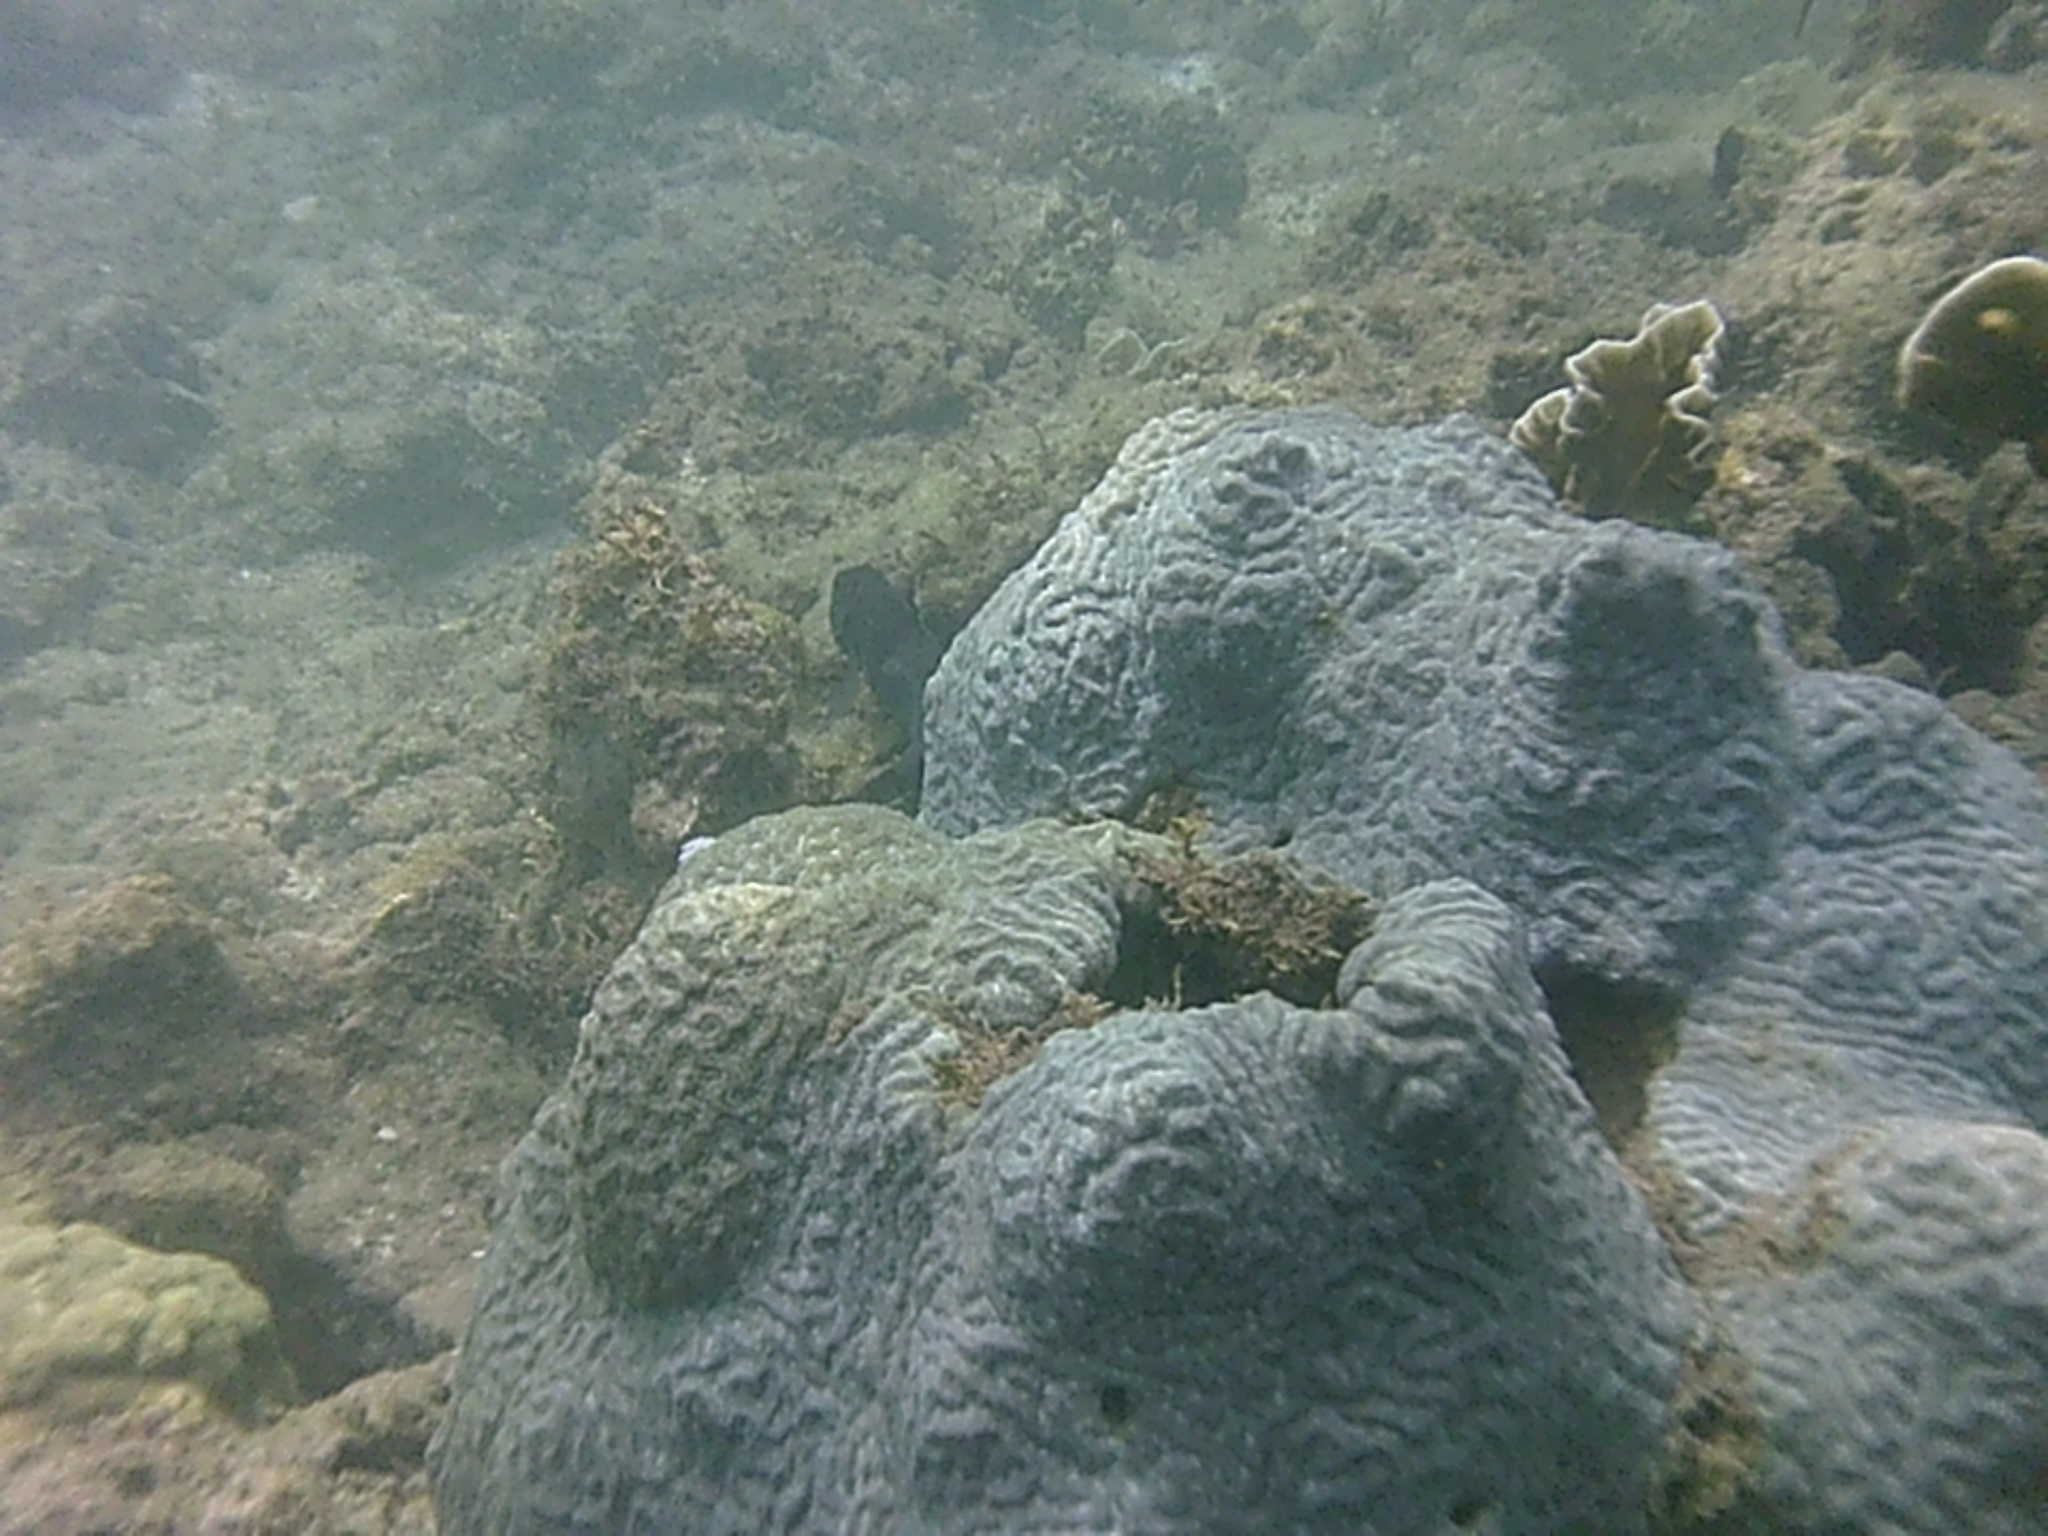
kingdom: Animalia
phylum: Cnidaria
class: Anthozoa
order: Scleractinia
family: Faviidae
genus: Pseudodiploria
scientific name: Pseudodiploria clivosa
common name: Knobby brain coral
